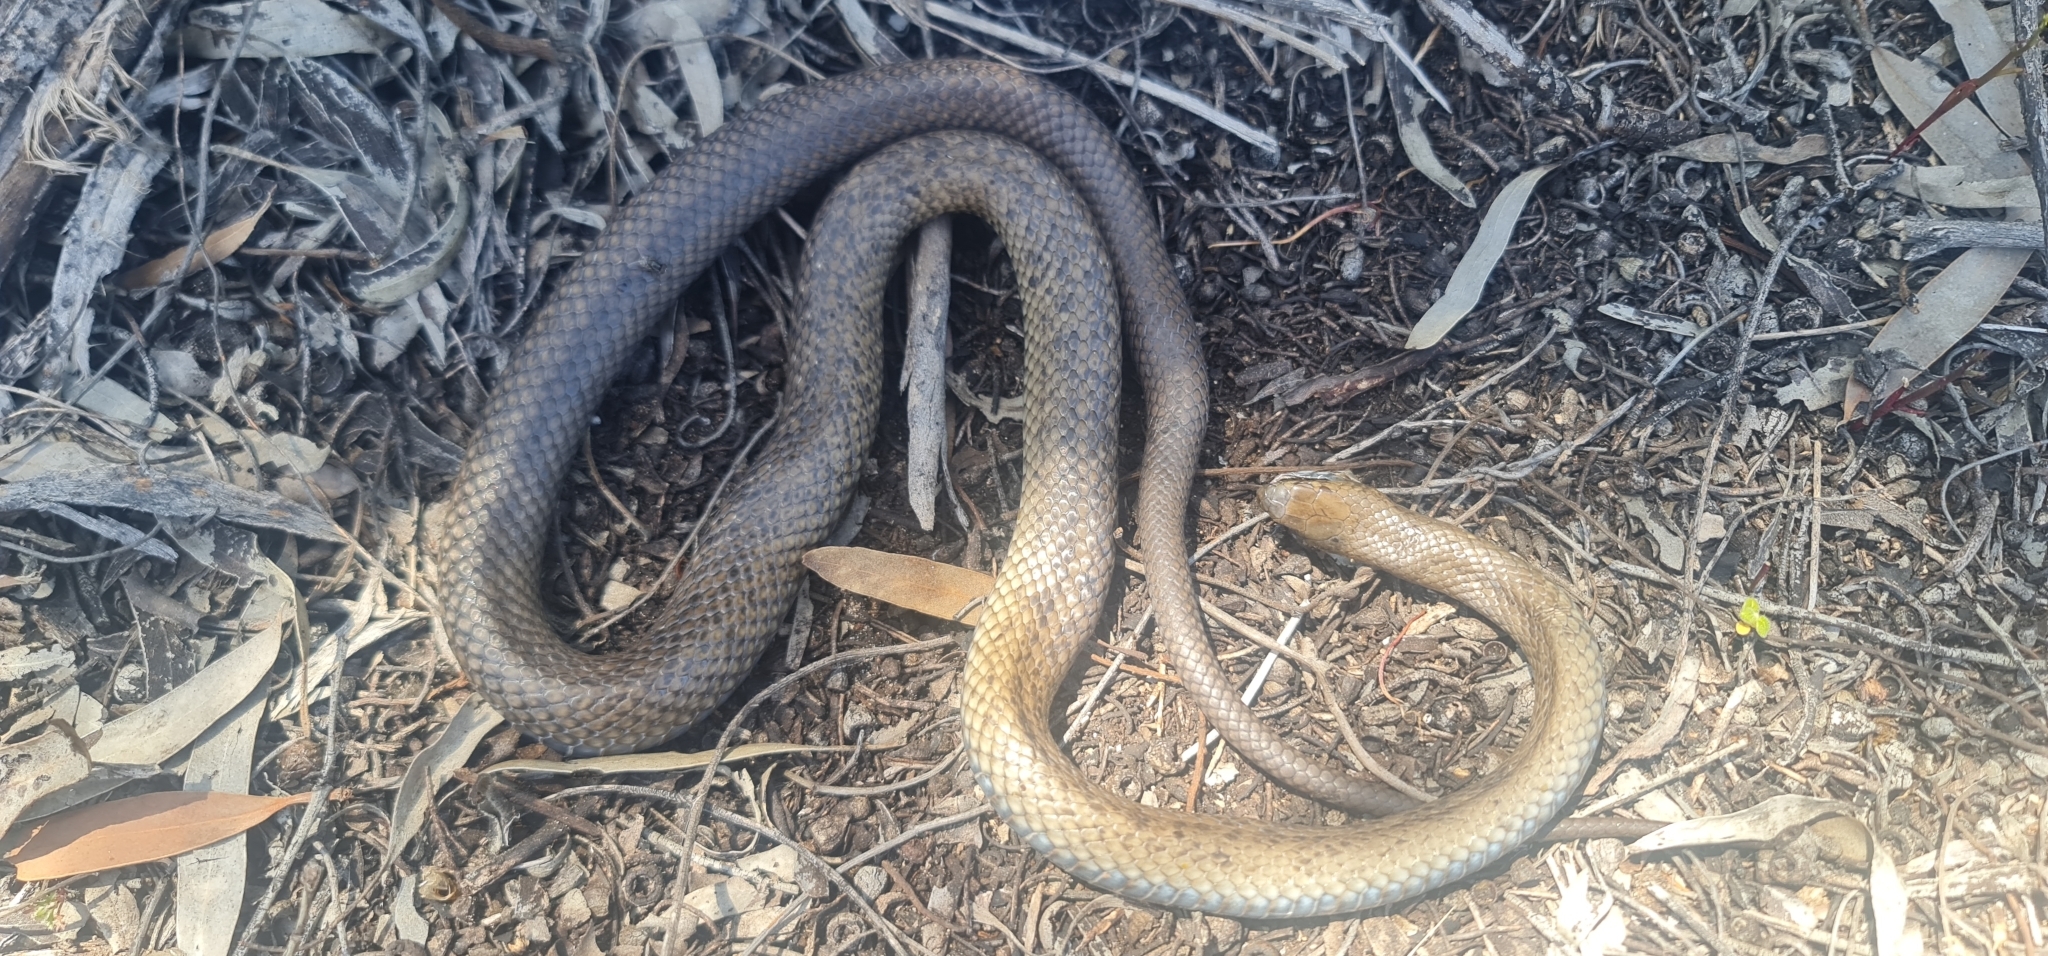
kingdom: Animalia
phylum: Chordata
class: Squamata
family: Elapidae
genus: Pseudonaja
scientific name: Pseudonaja inframacula
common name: Peninsula brown snake
